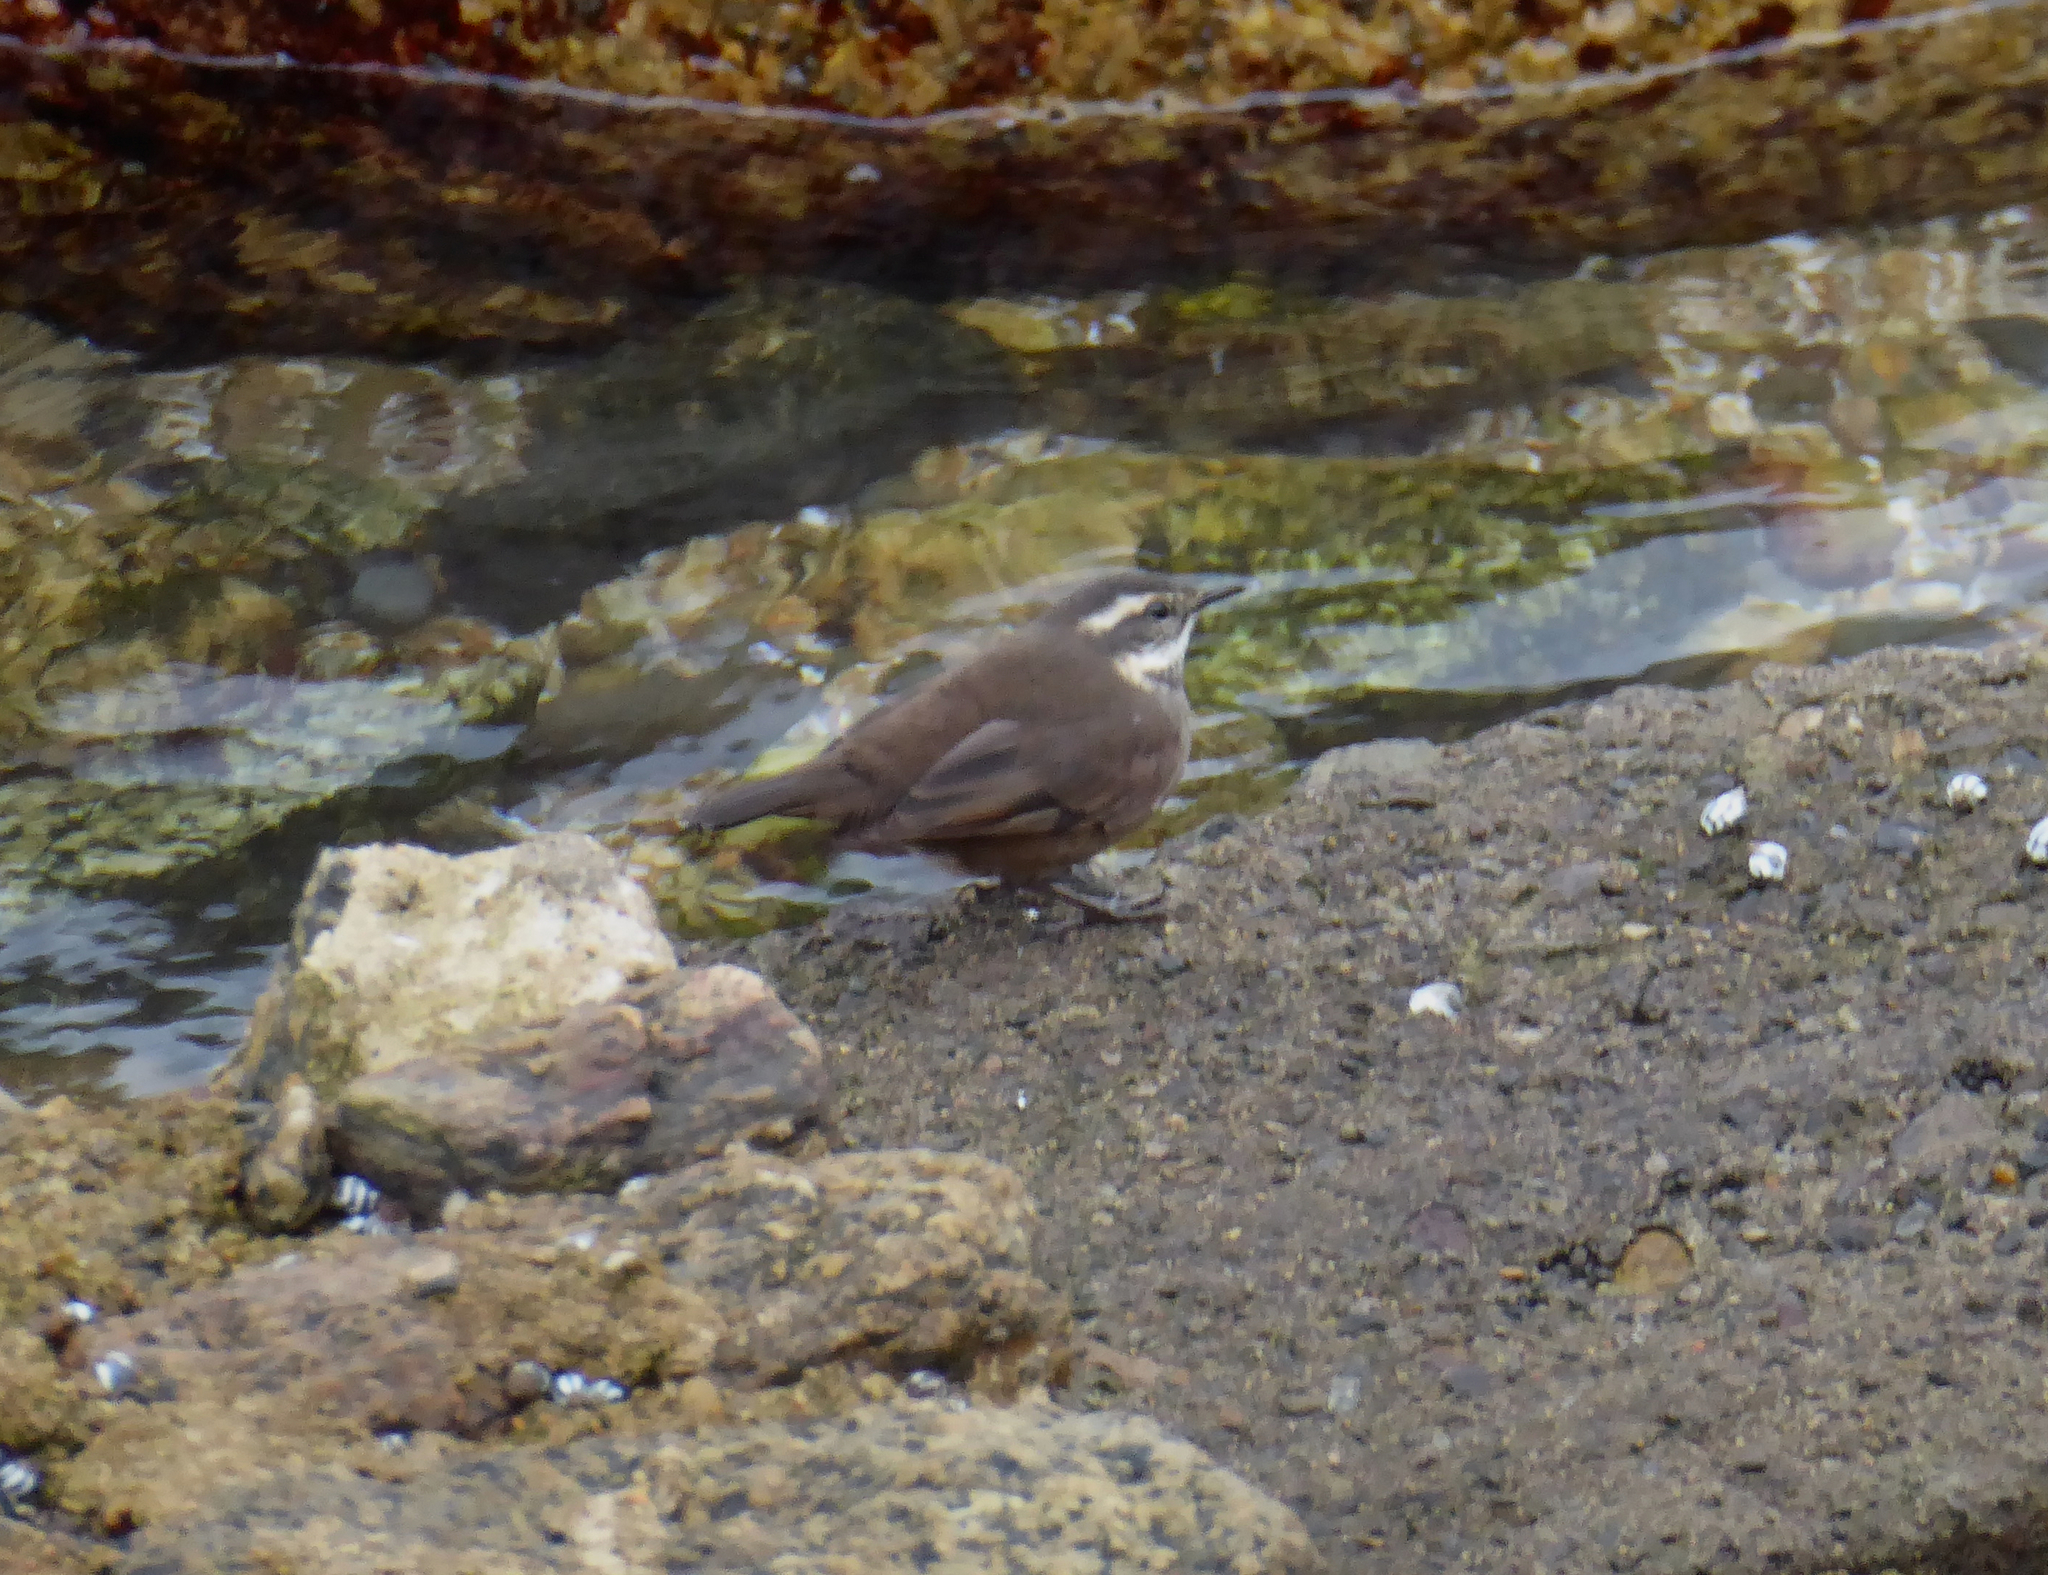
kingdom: Animalia
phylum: Chordata
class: Aves
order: Passeriformes
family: Furnariidae
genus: Cinclodes
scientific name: Cinclodes oustaleti
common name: Grey-flanked cinclodes
